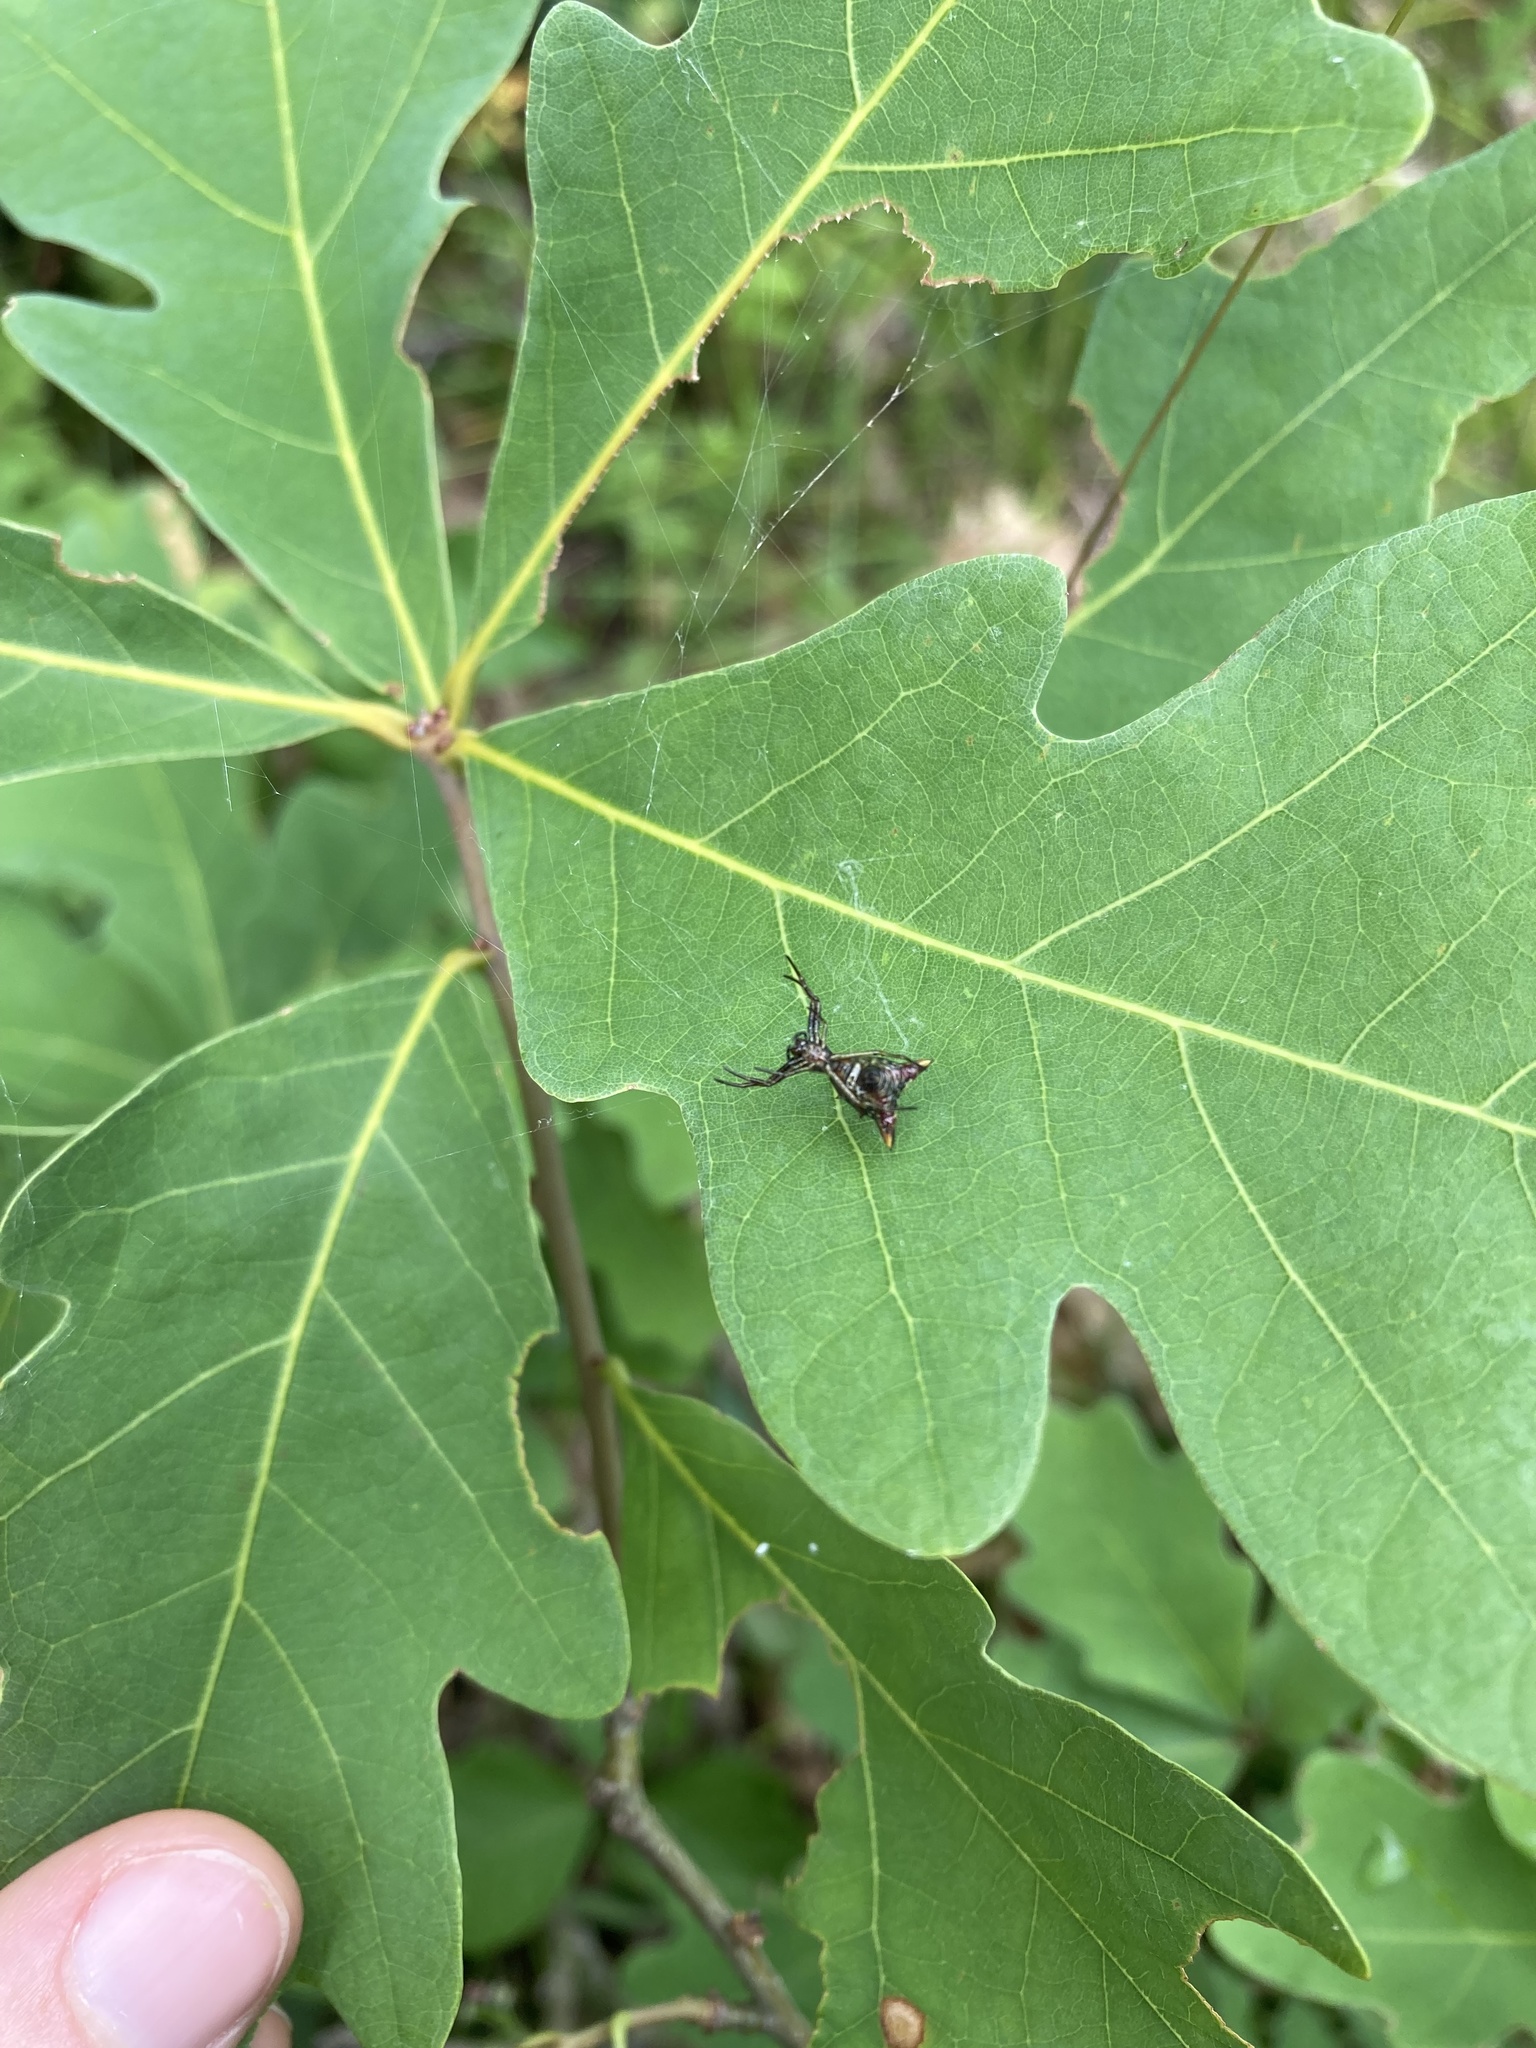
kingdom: Animalia
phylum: Arthropoda
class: Arachnida
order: Araneae
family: Araneidae
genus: Micrathena
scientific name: Micrathena sagittata
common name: Orb weavers
